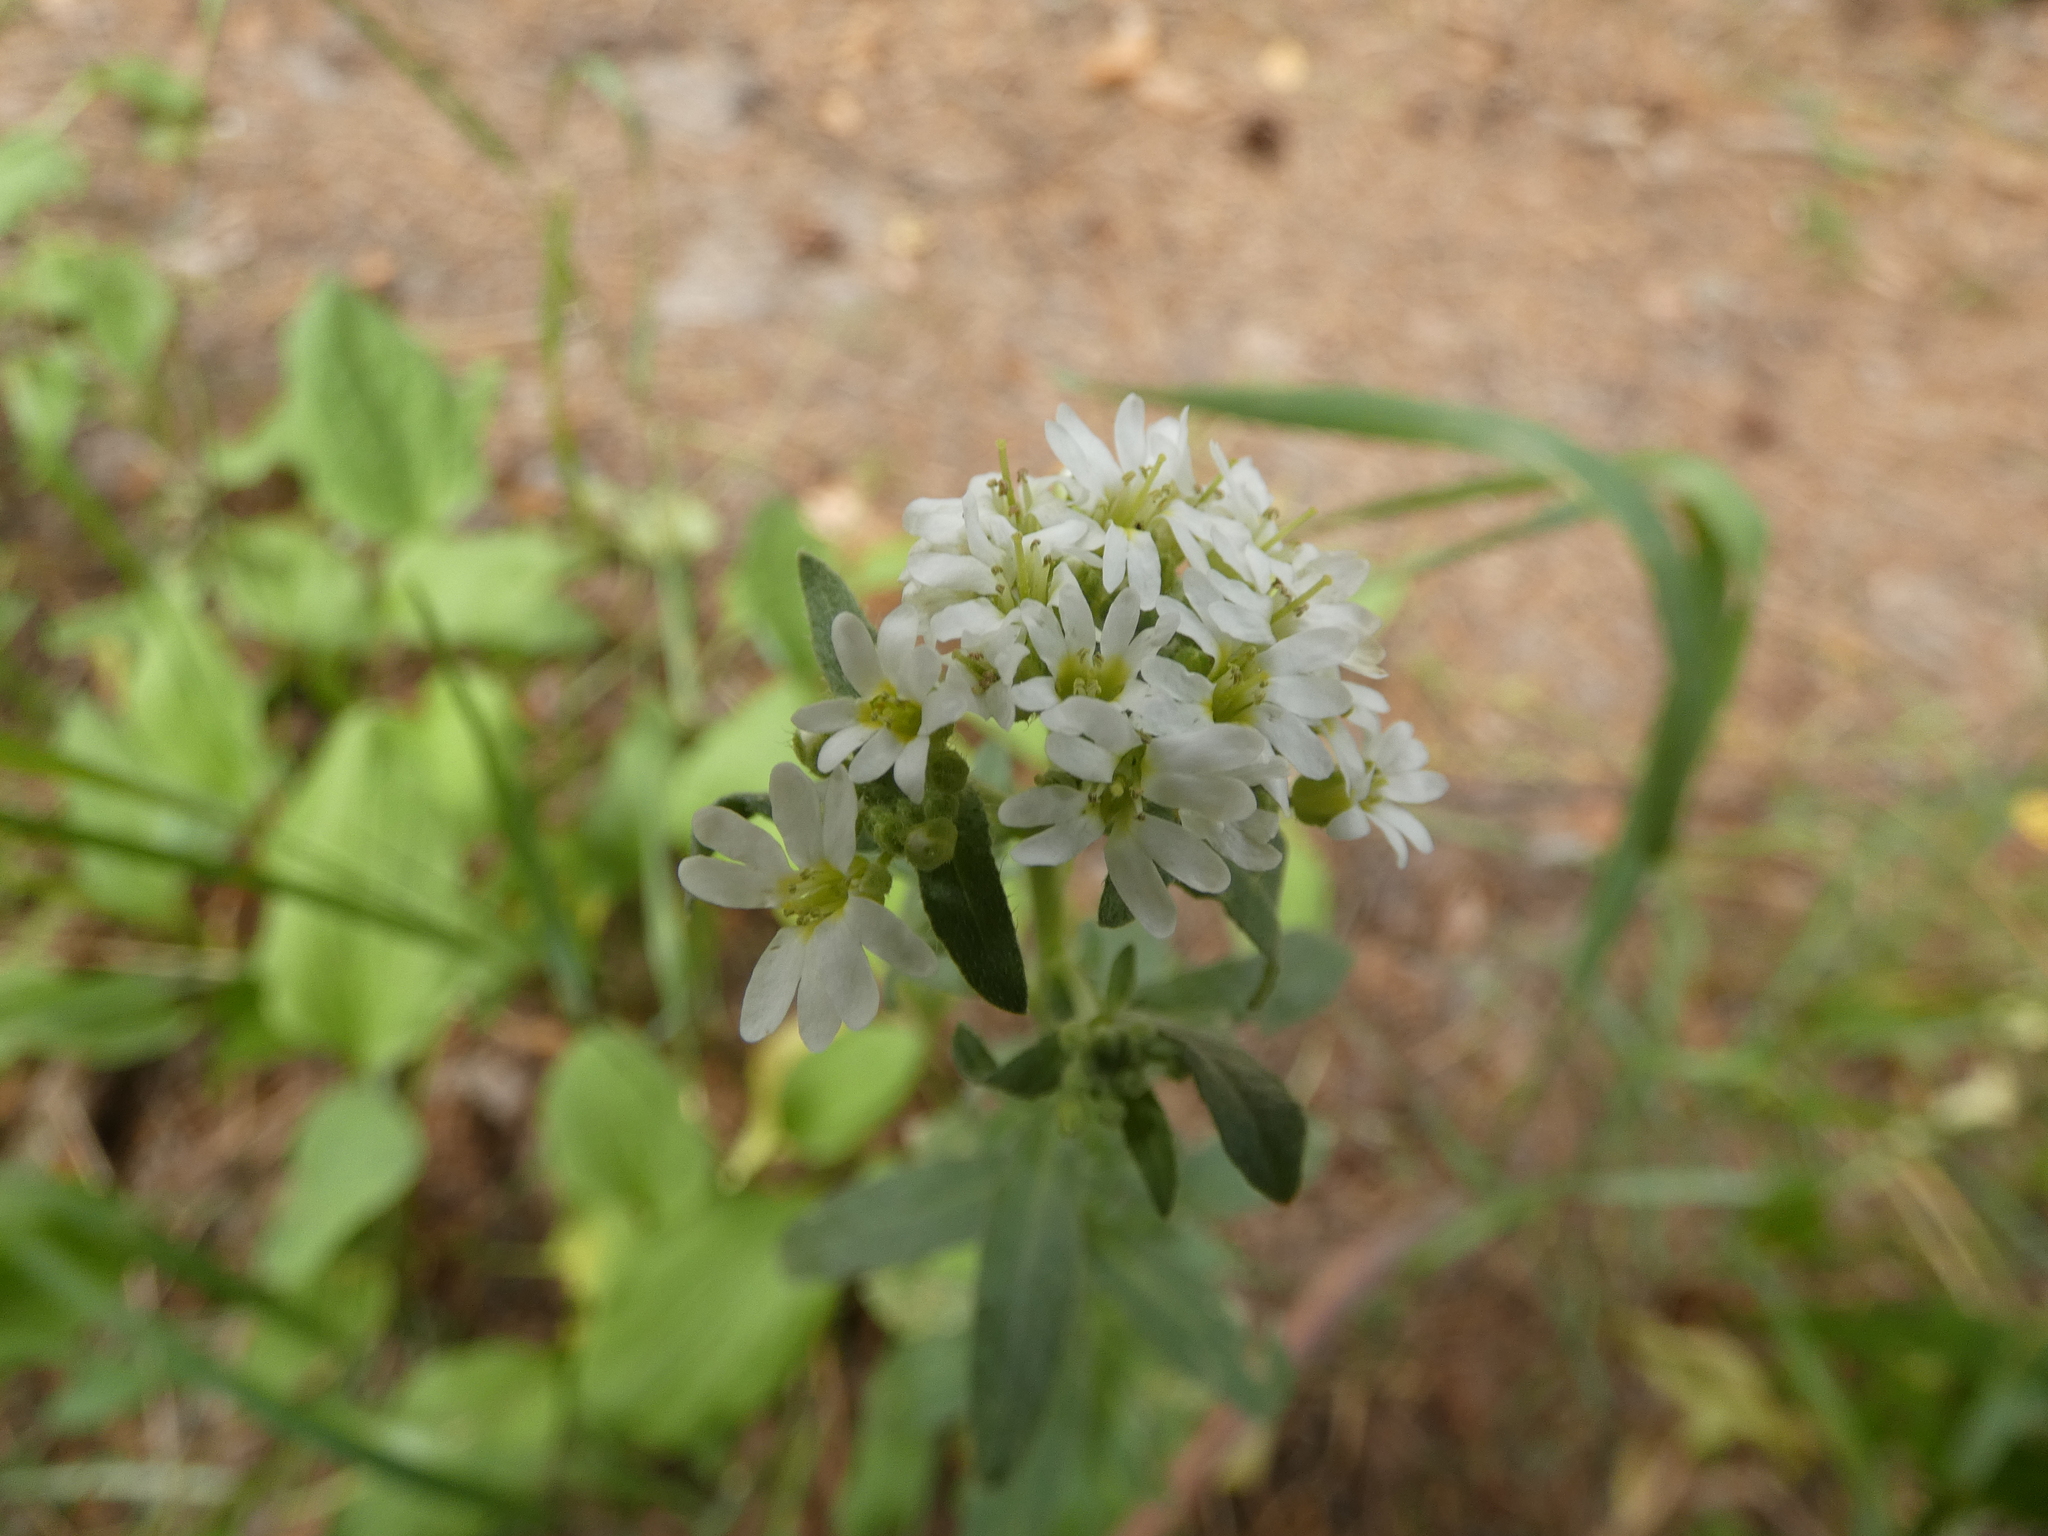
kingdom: Plantae
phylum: Tracheophyta
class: Magnoliopsida
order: Brassicales
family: Brassicaceae
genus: Berteroa
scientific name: Berteroa incana
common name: Hoary alison
